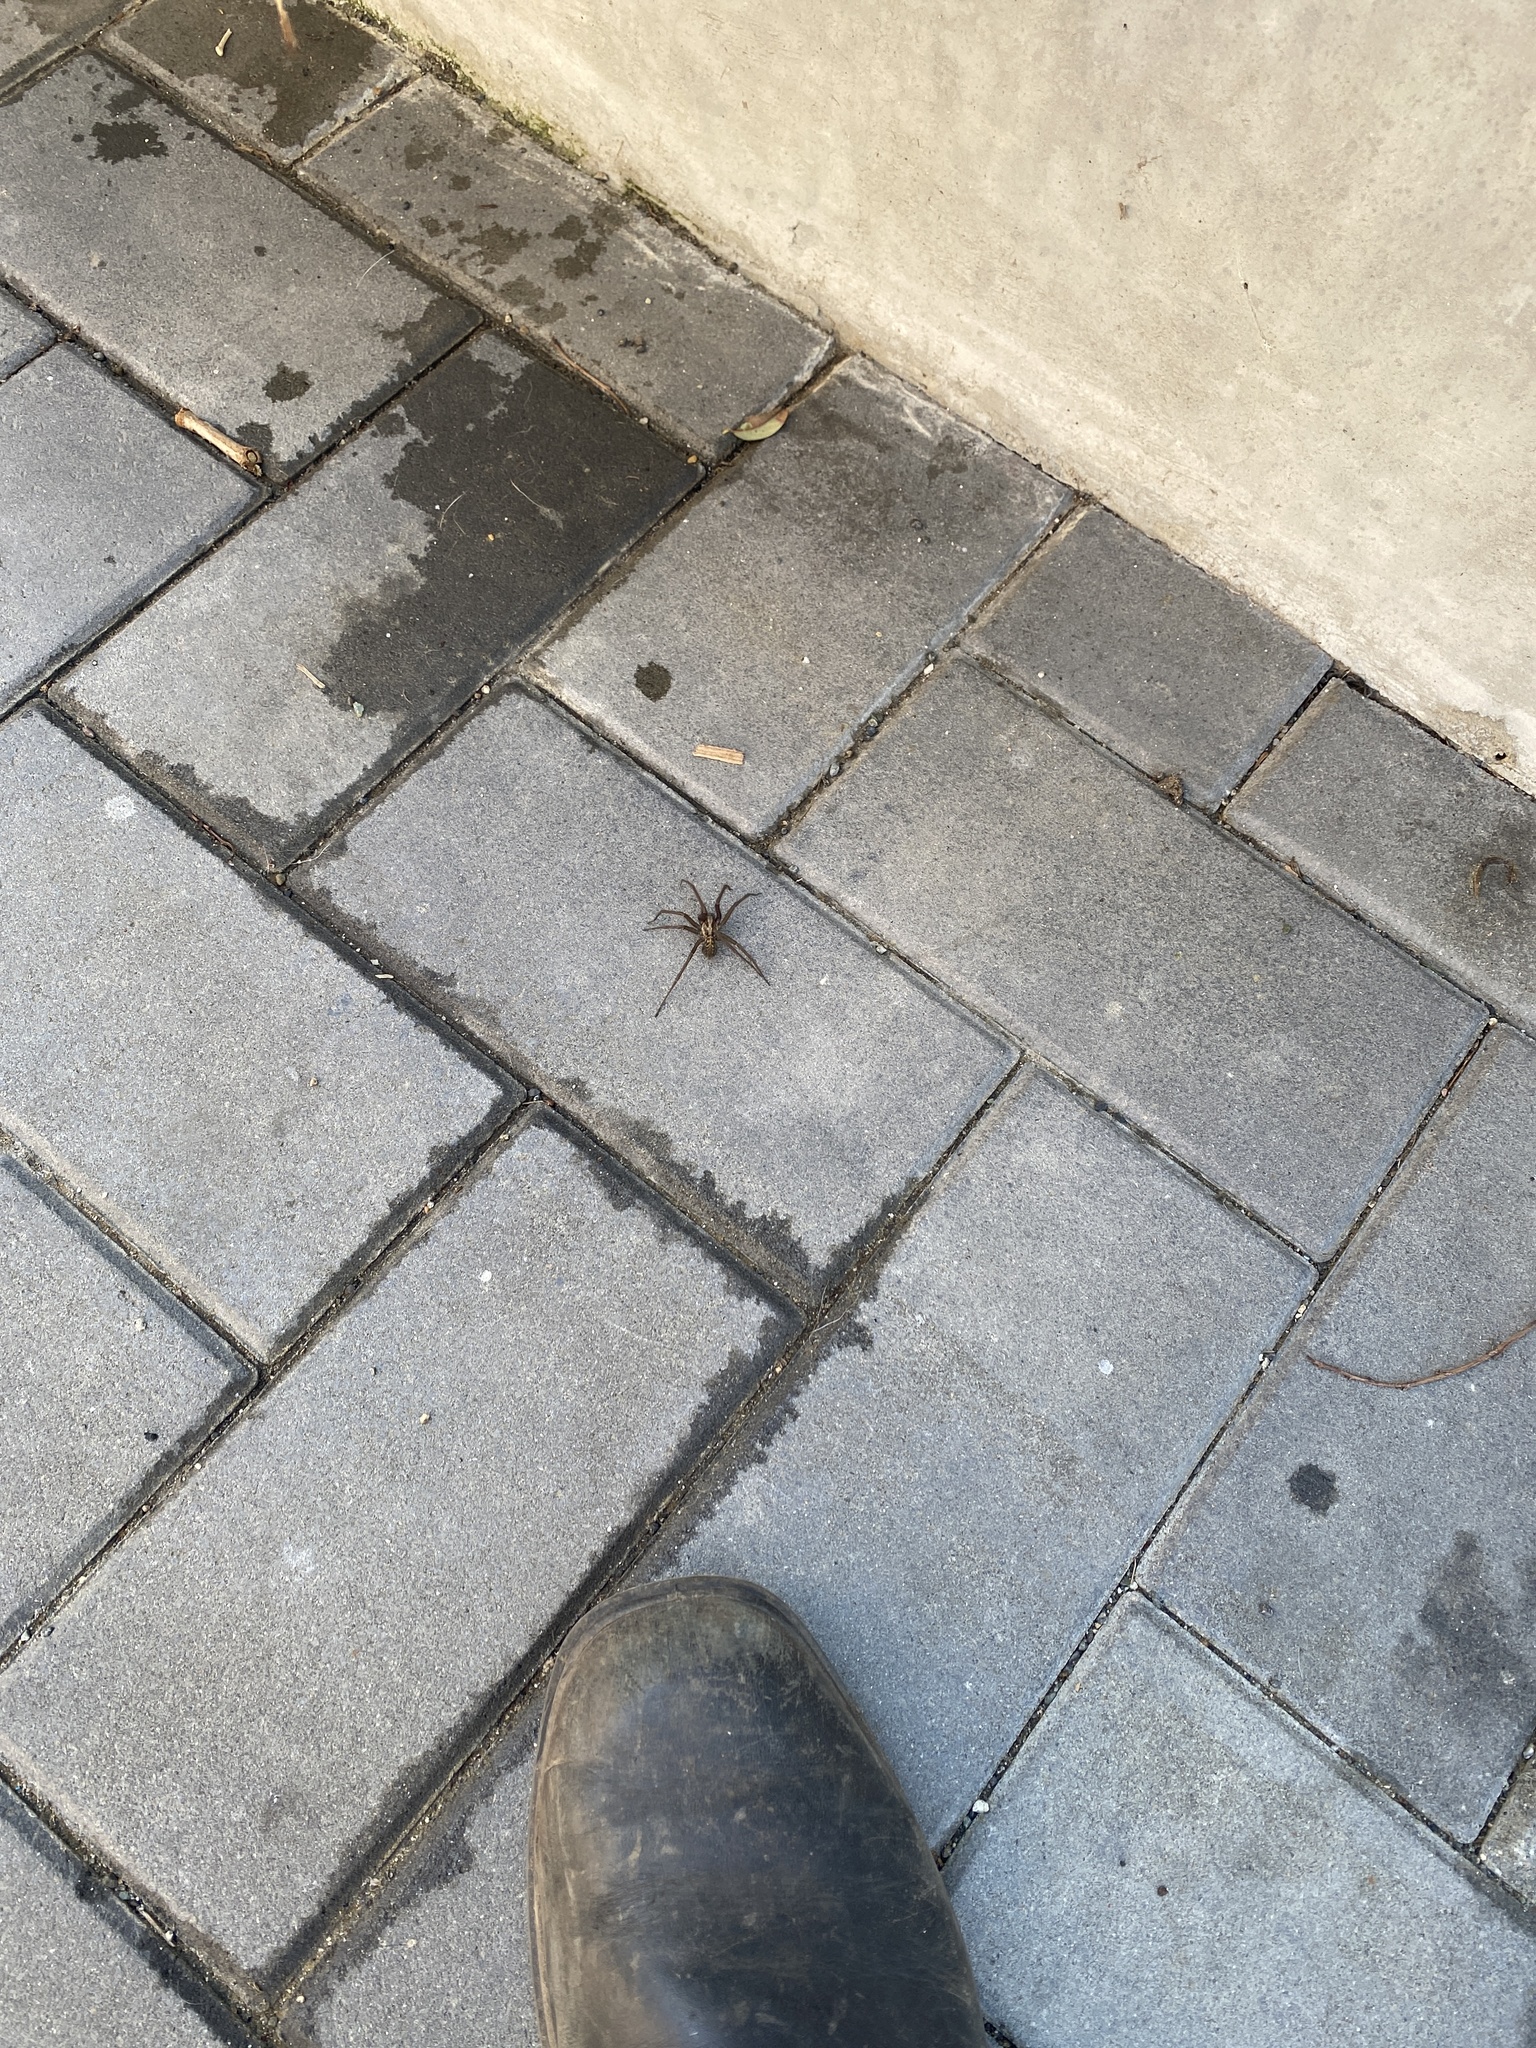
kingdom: Animalia
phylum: Arthropoda
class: Arachnida
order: Araneae
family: Agelenidae
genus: Eratigena
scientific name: Eratigena duellica
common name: Giant house spider
